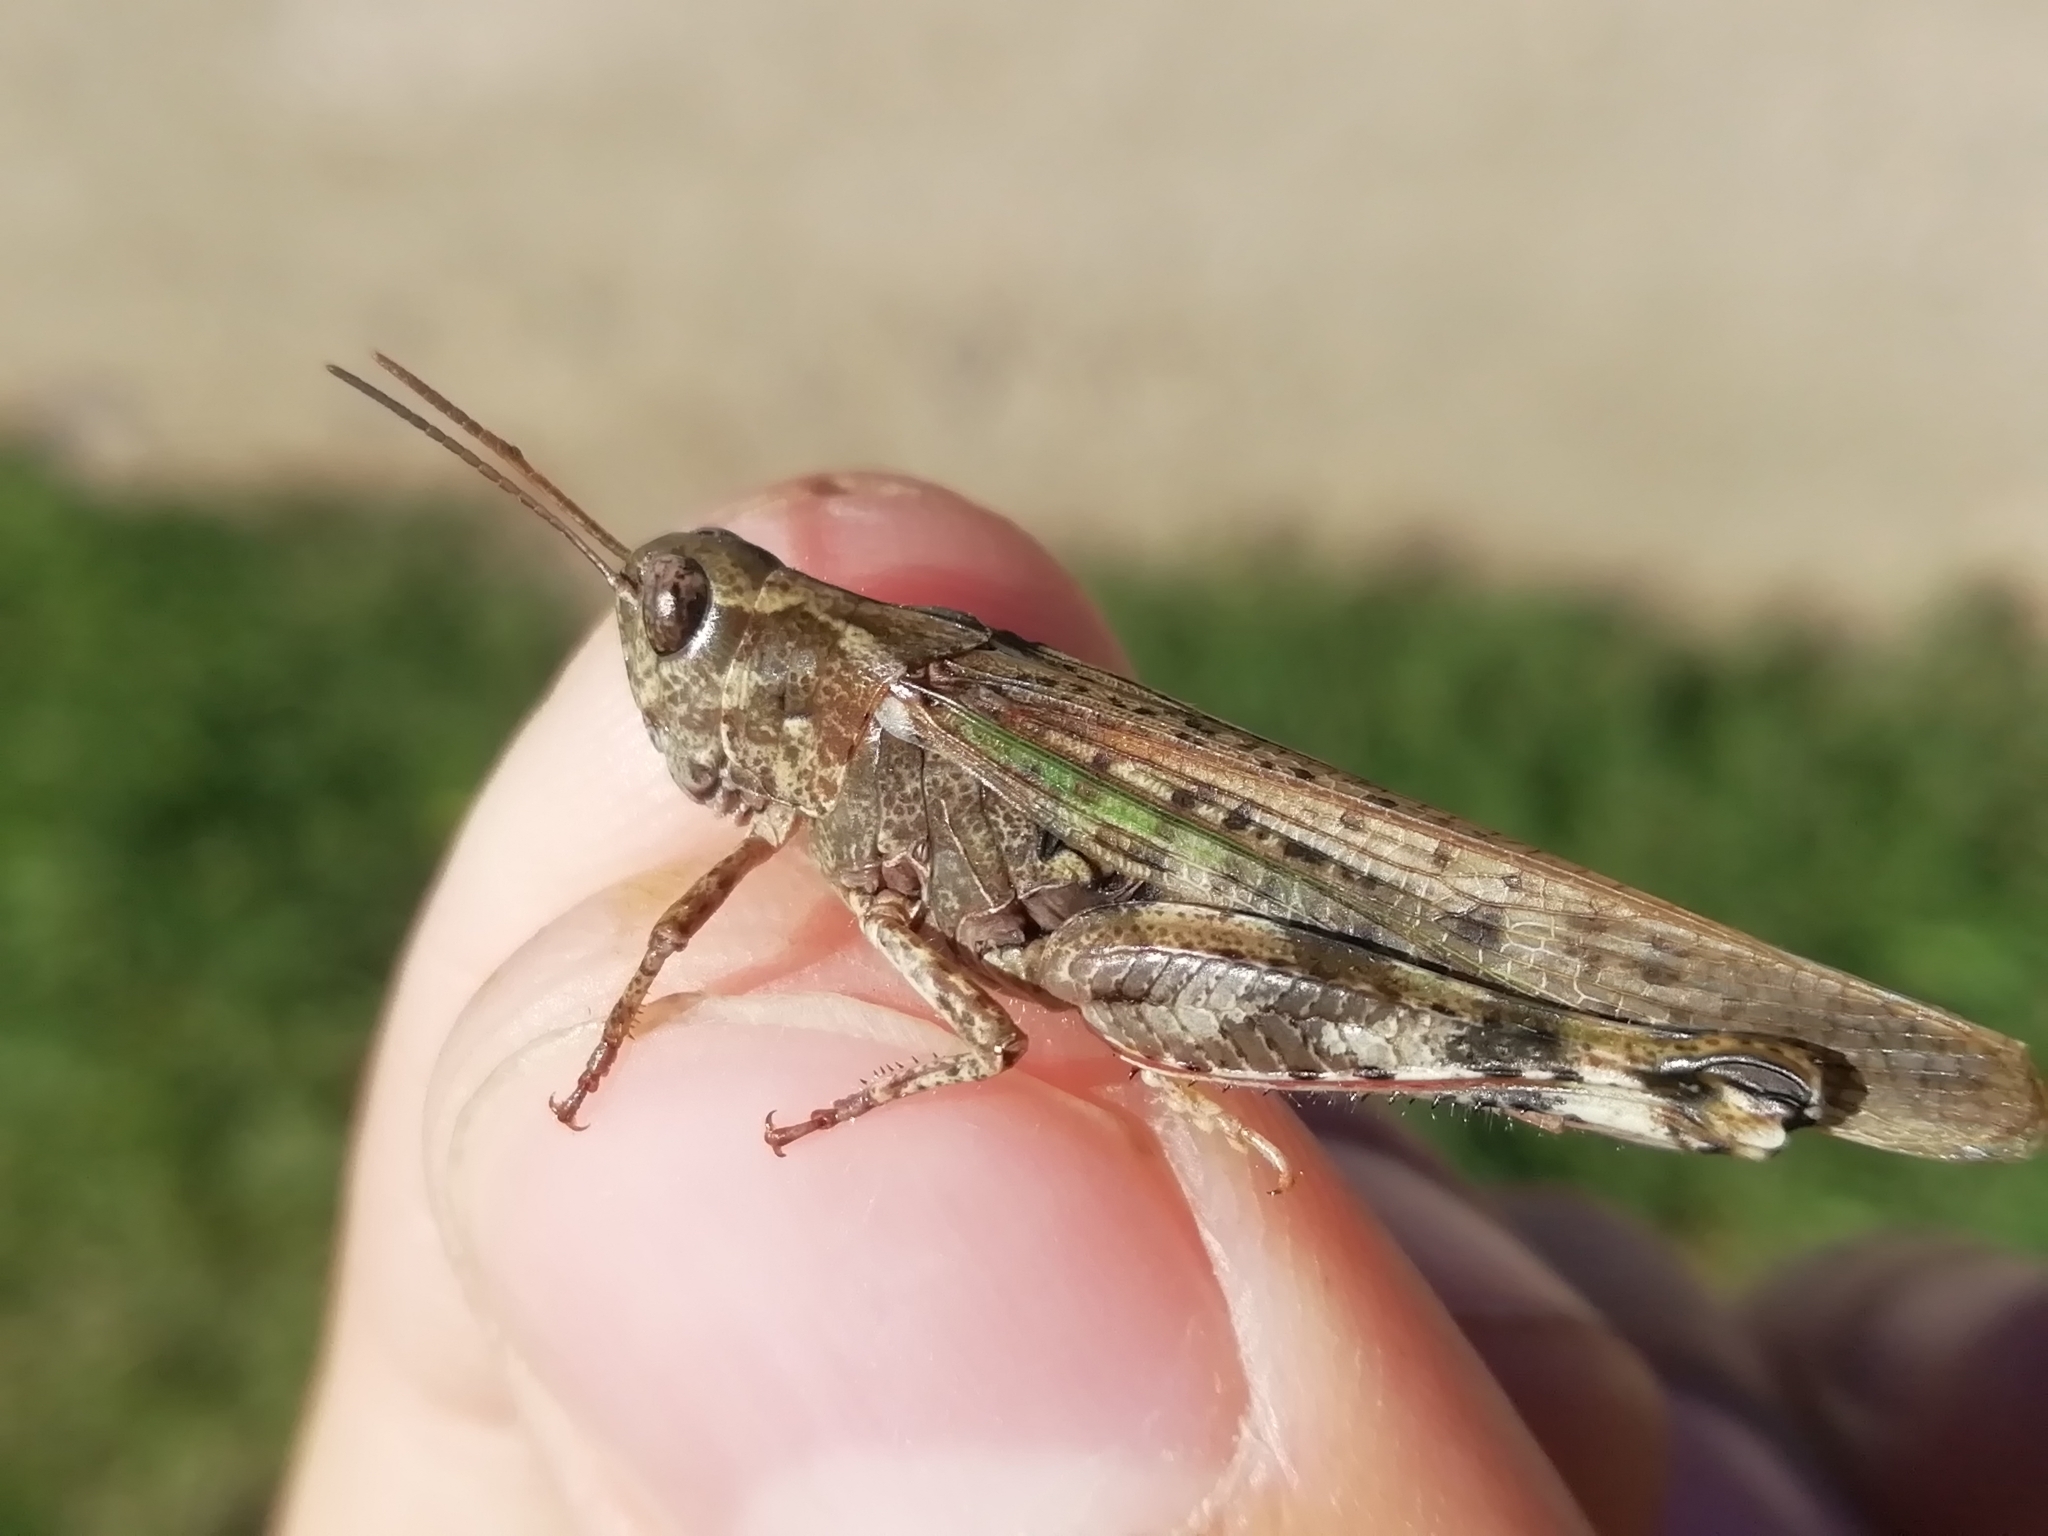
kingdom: Animalia
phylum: Arthropoda
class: Insecta
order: Orthoptera
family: Acrididae
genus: Epacromius
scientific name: Epacromius pulverulentus
